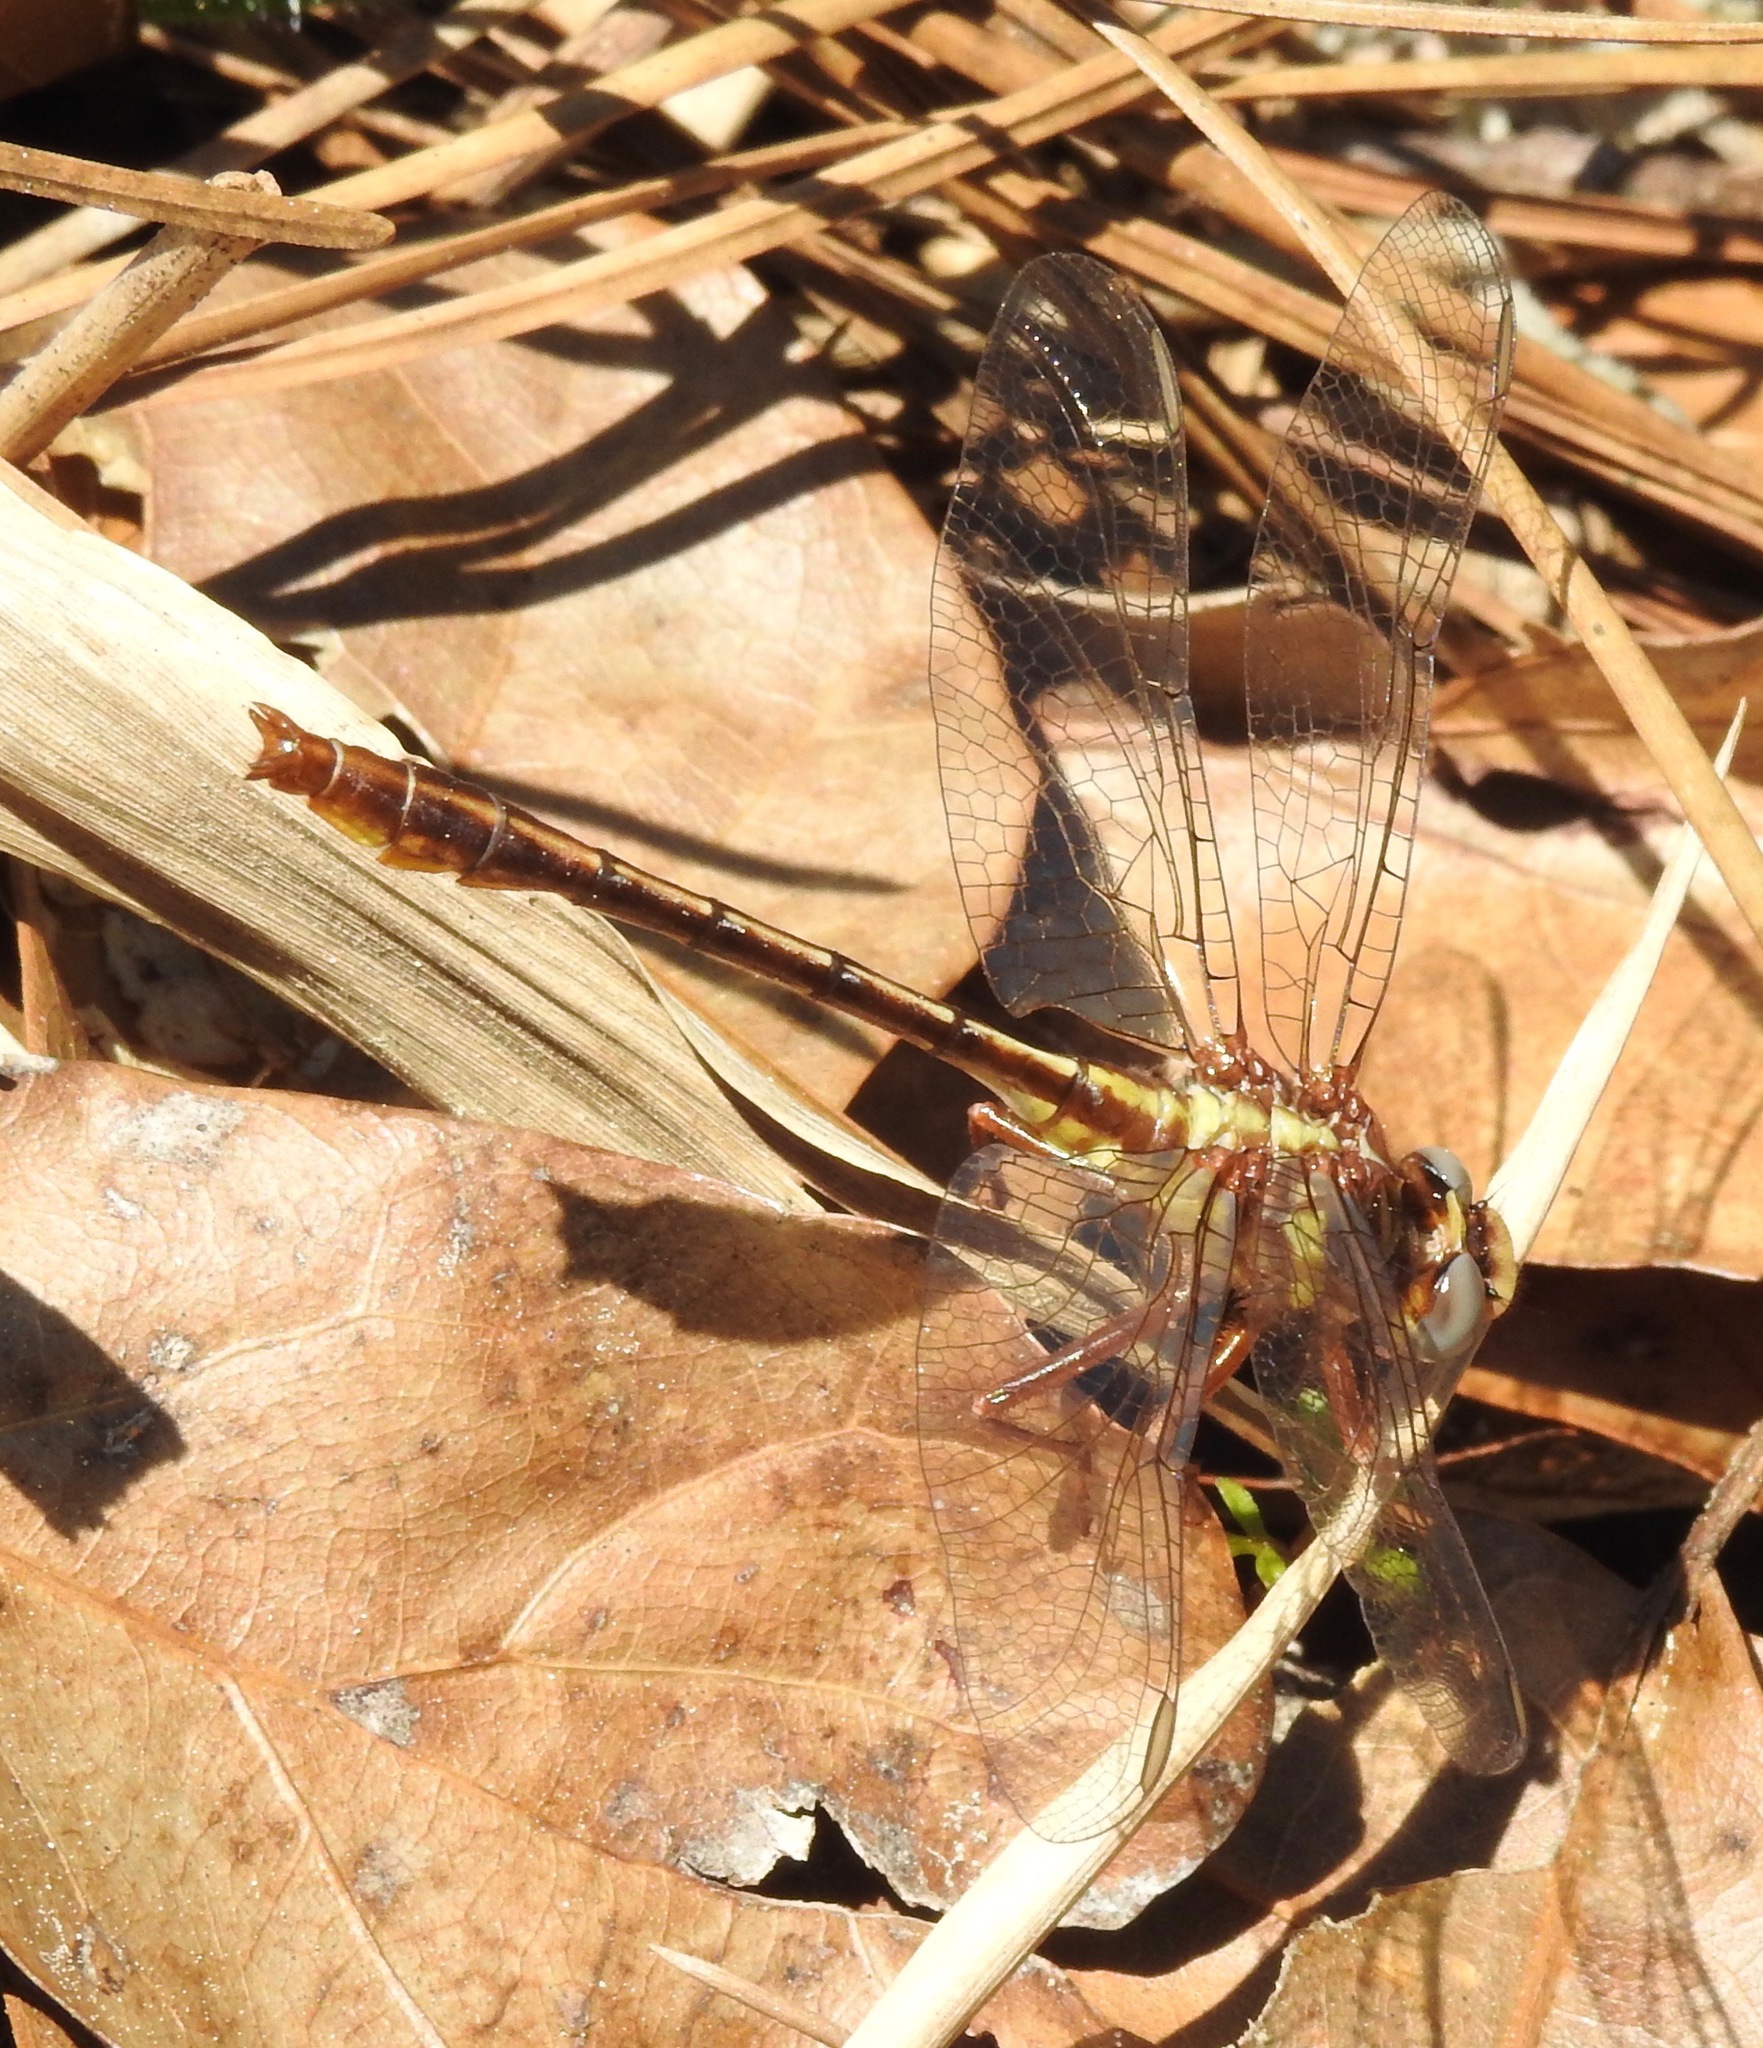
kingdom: Animalia
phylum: Arthropoda
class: Insecta
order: Odonata
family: Gomphidae
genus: Phanogomphus
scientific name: Phanogomphus minutus
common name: Cypress clubtail
